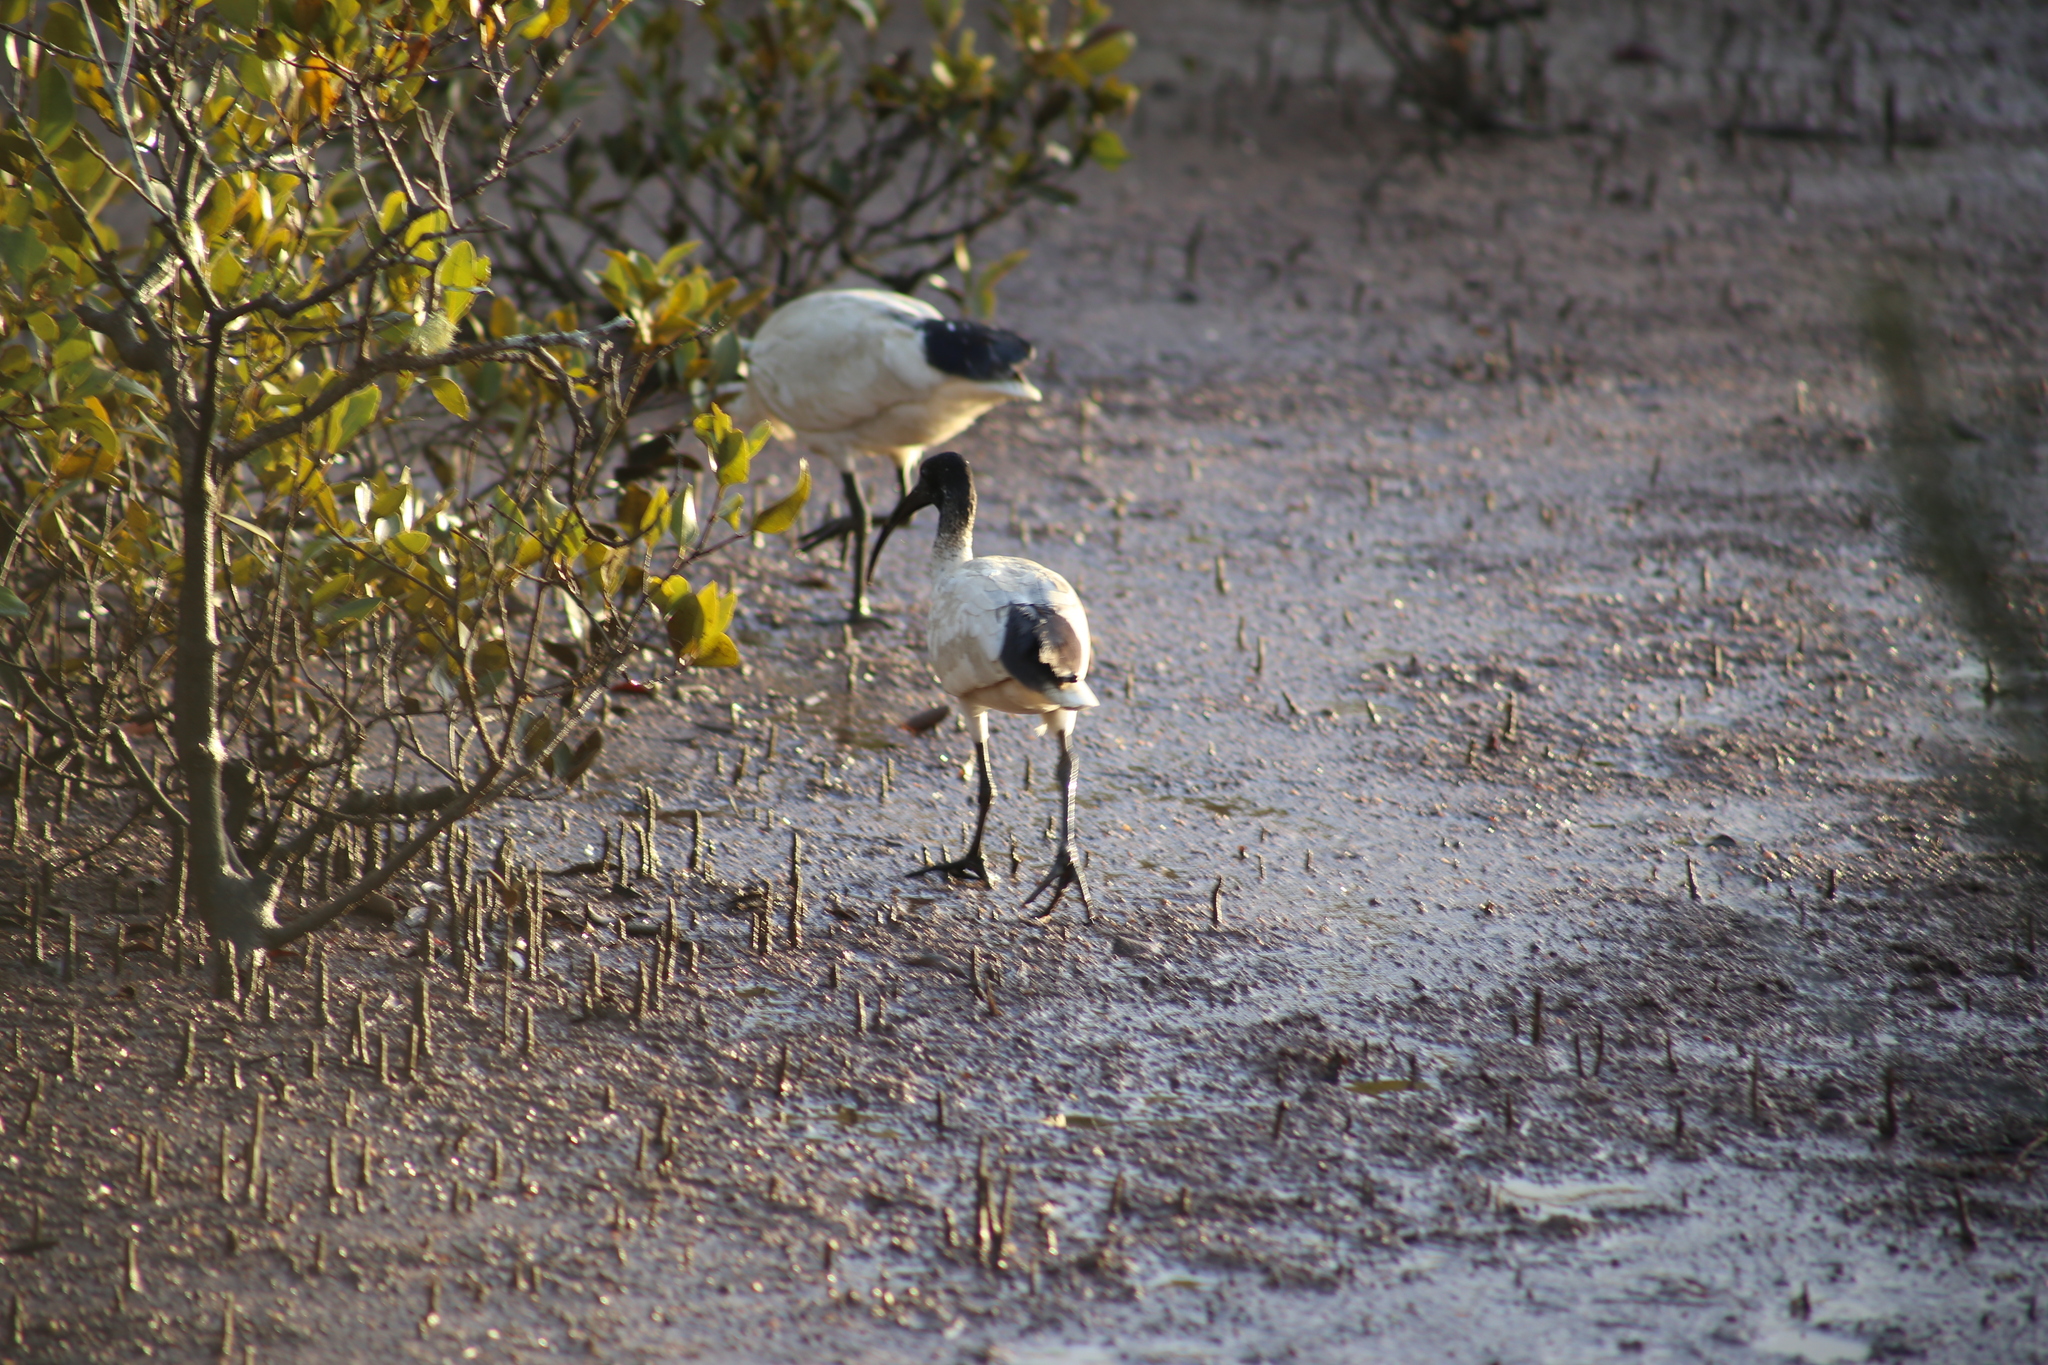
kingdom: Animalia
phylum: Chordata
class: Aves
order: Pelecaniformes
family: Threskiornithidae
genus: Threskiornis
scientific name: Threskiornis molucca
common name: Australian white ibis
